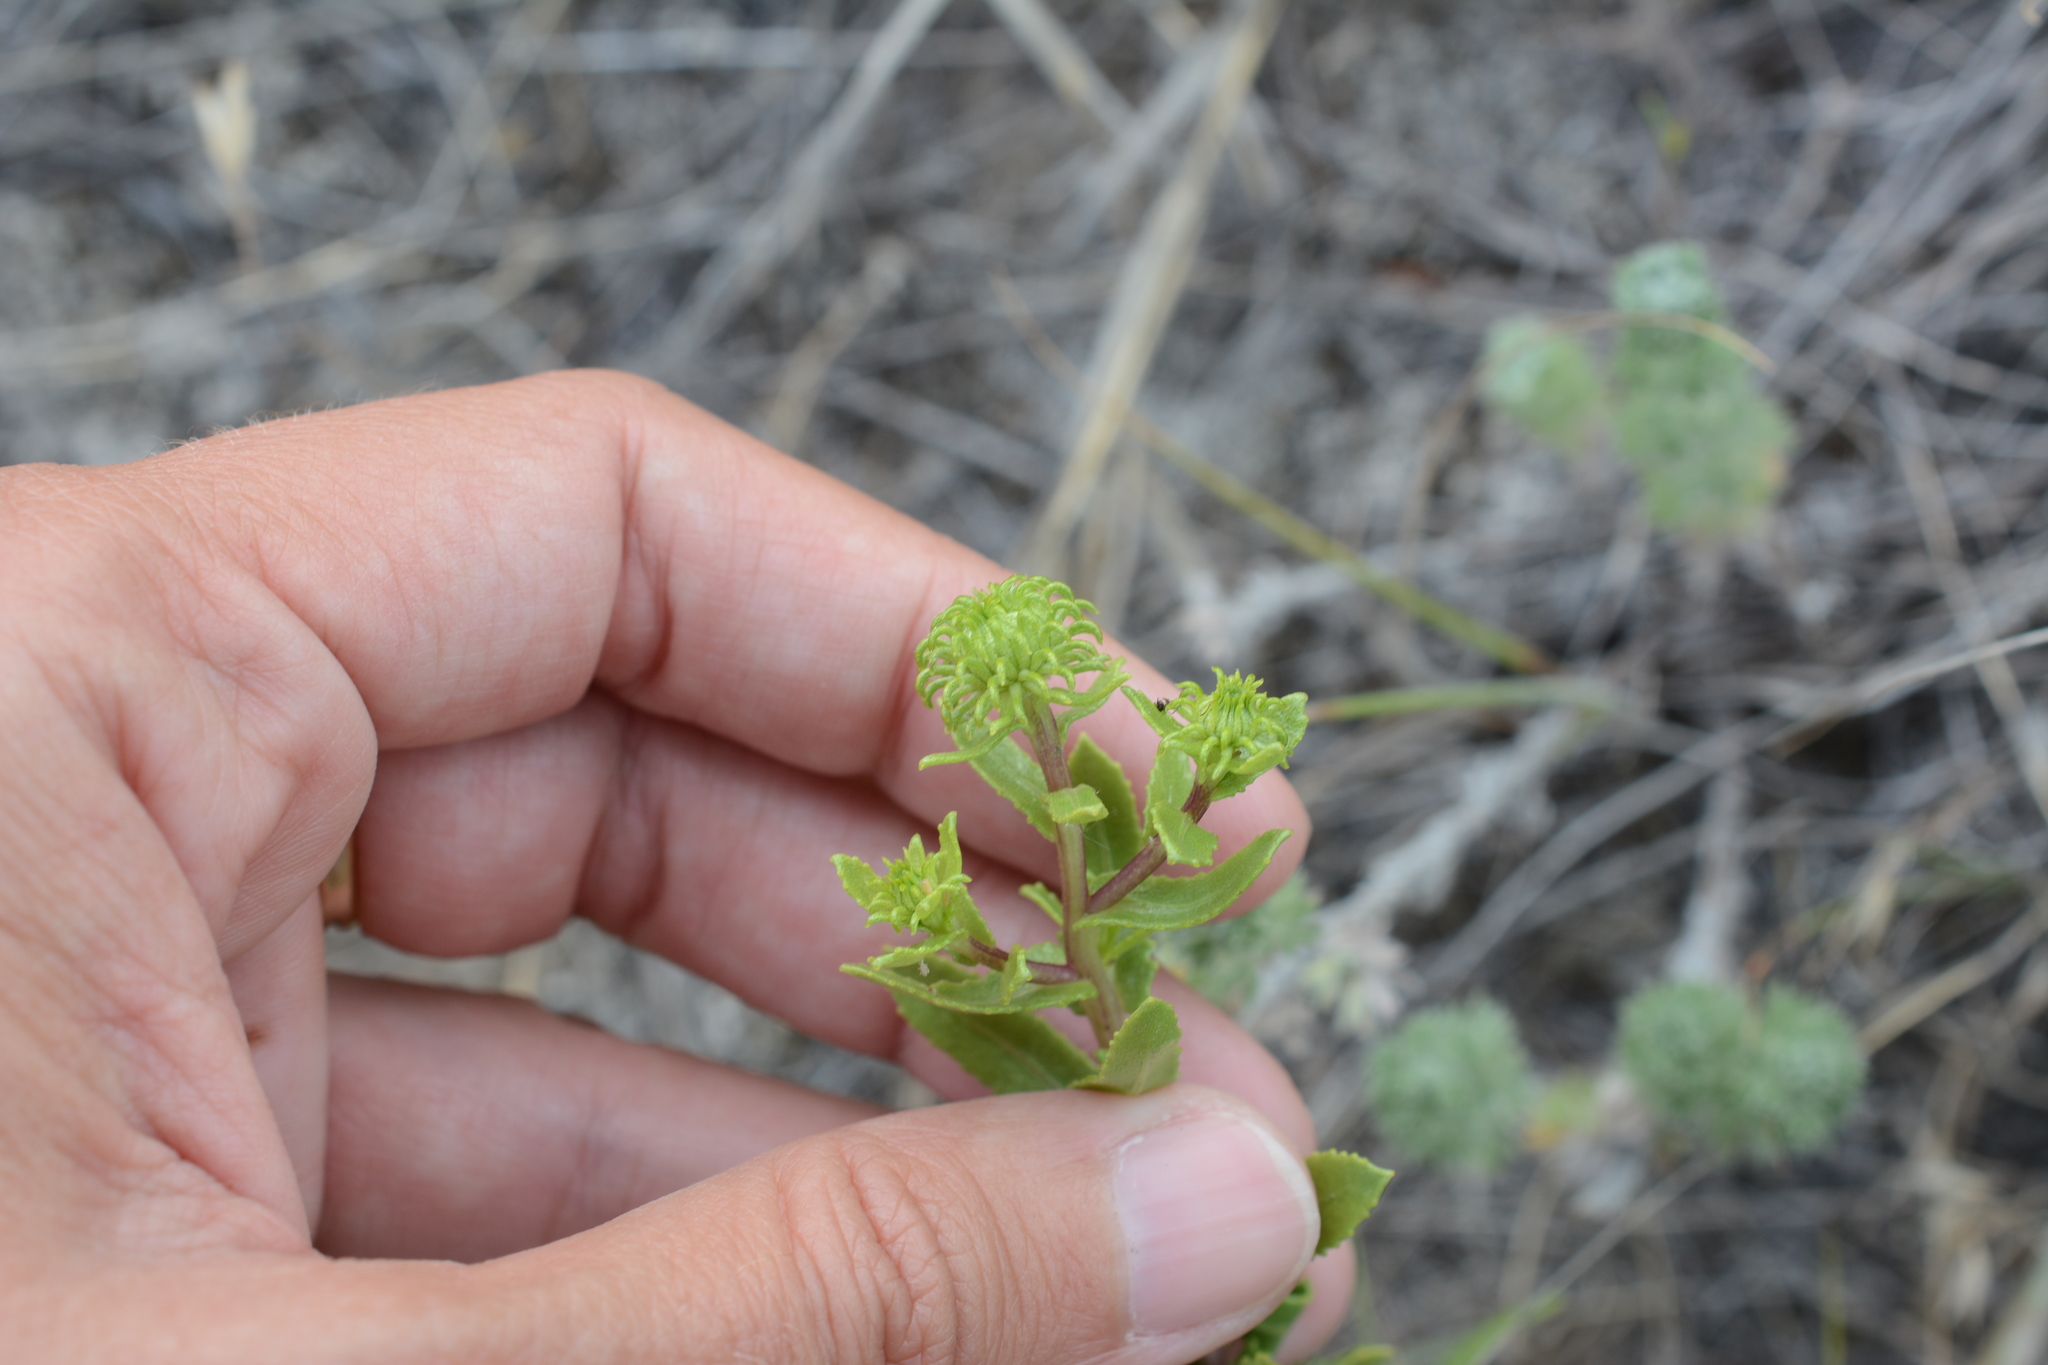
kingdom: Plantae
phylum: Tracheophyta
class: Magnoliopsida
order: Asterales
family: Asteraceae
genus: Grindelia
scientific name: Grindelia squarrosa
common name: Curly-cup gumweed
